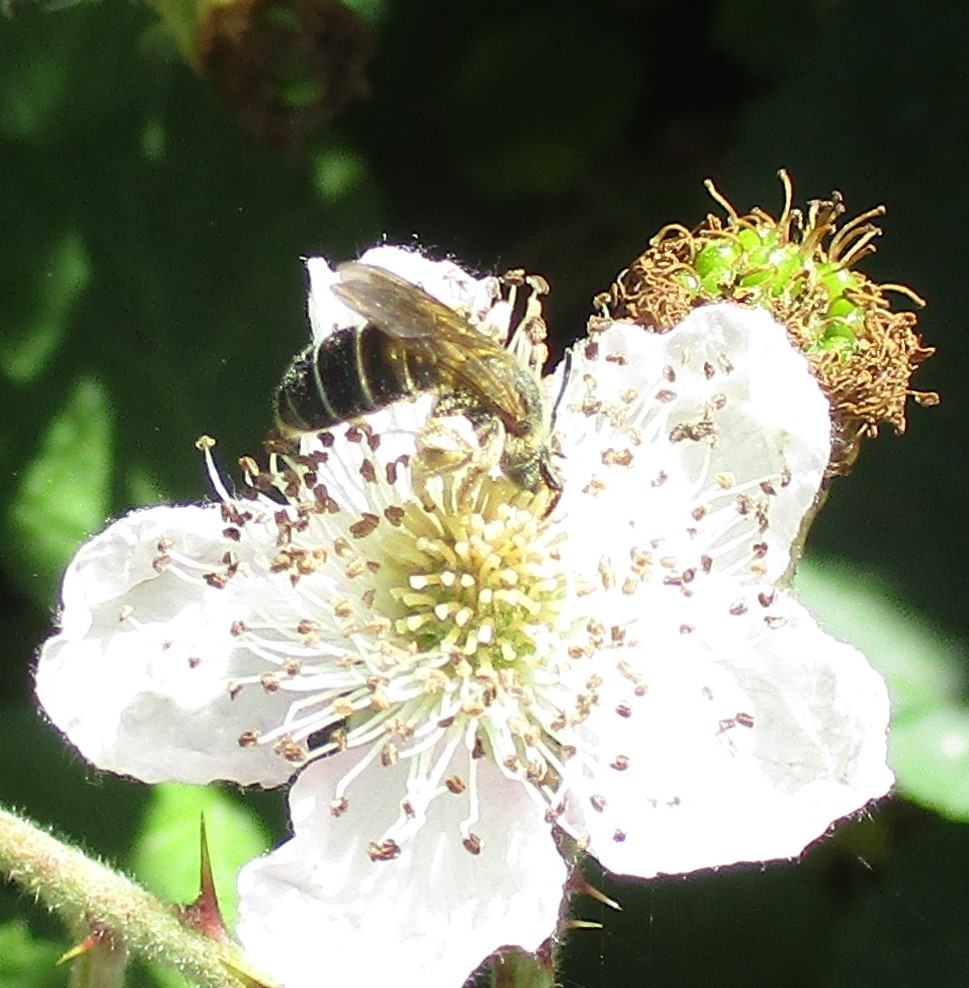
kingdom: Animalia
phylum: Arthropoda
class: Insecta
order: Hymenoptera
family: Halictidae
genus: Halictus
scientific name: Halictus rubicundus
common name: Orange-legged furrow bee
